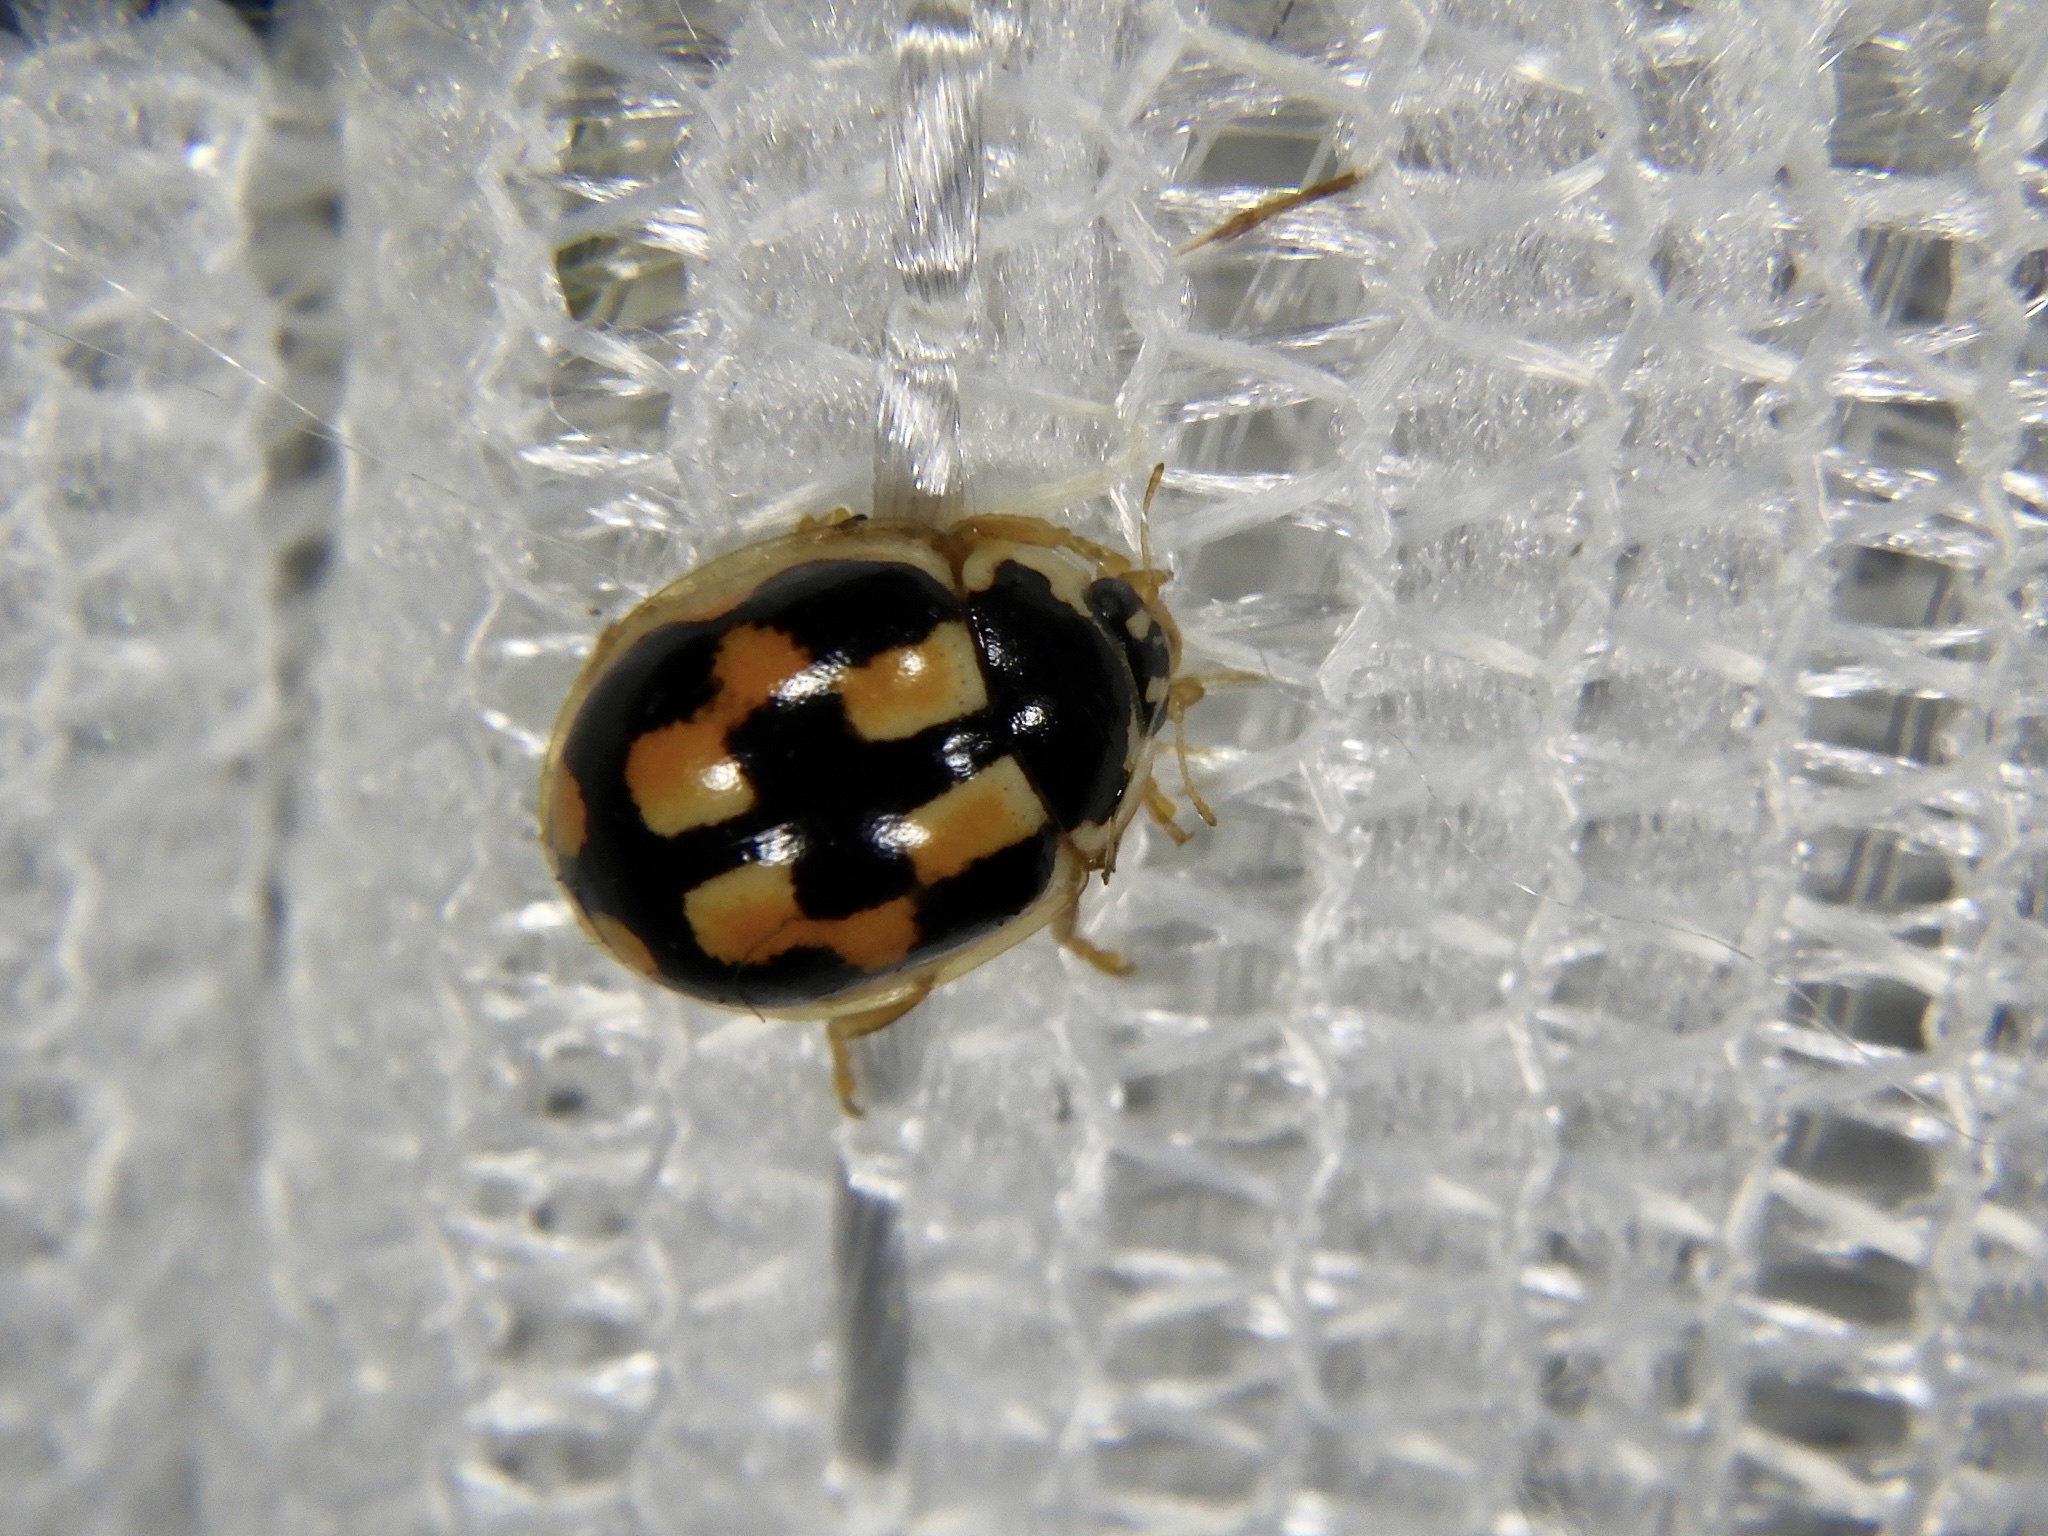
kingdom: Animalia
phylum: Arthropoda
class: Insecta
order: Coleoptera
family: Coccinellidae
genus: Propylea
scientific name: Propylea japonica
